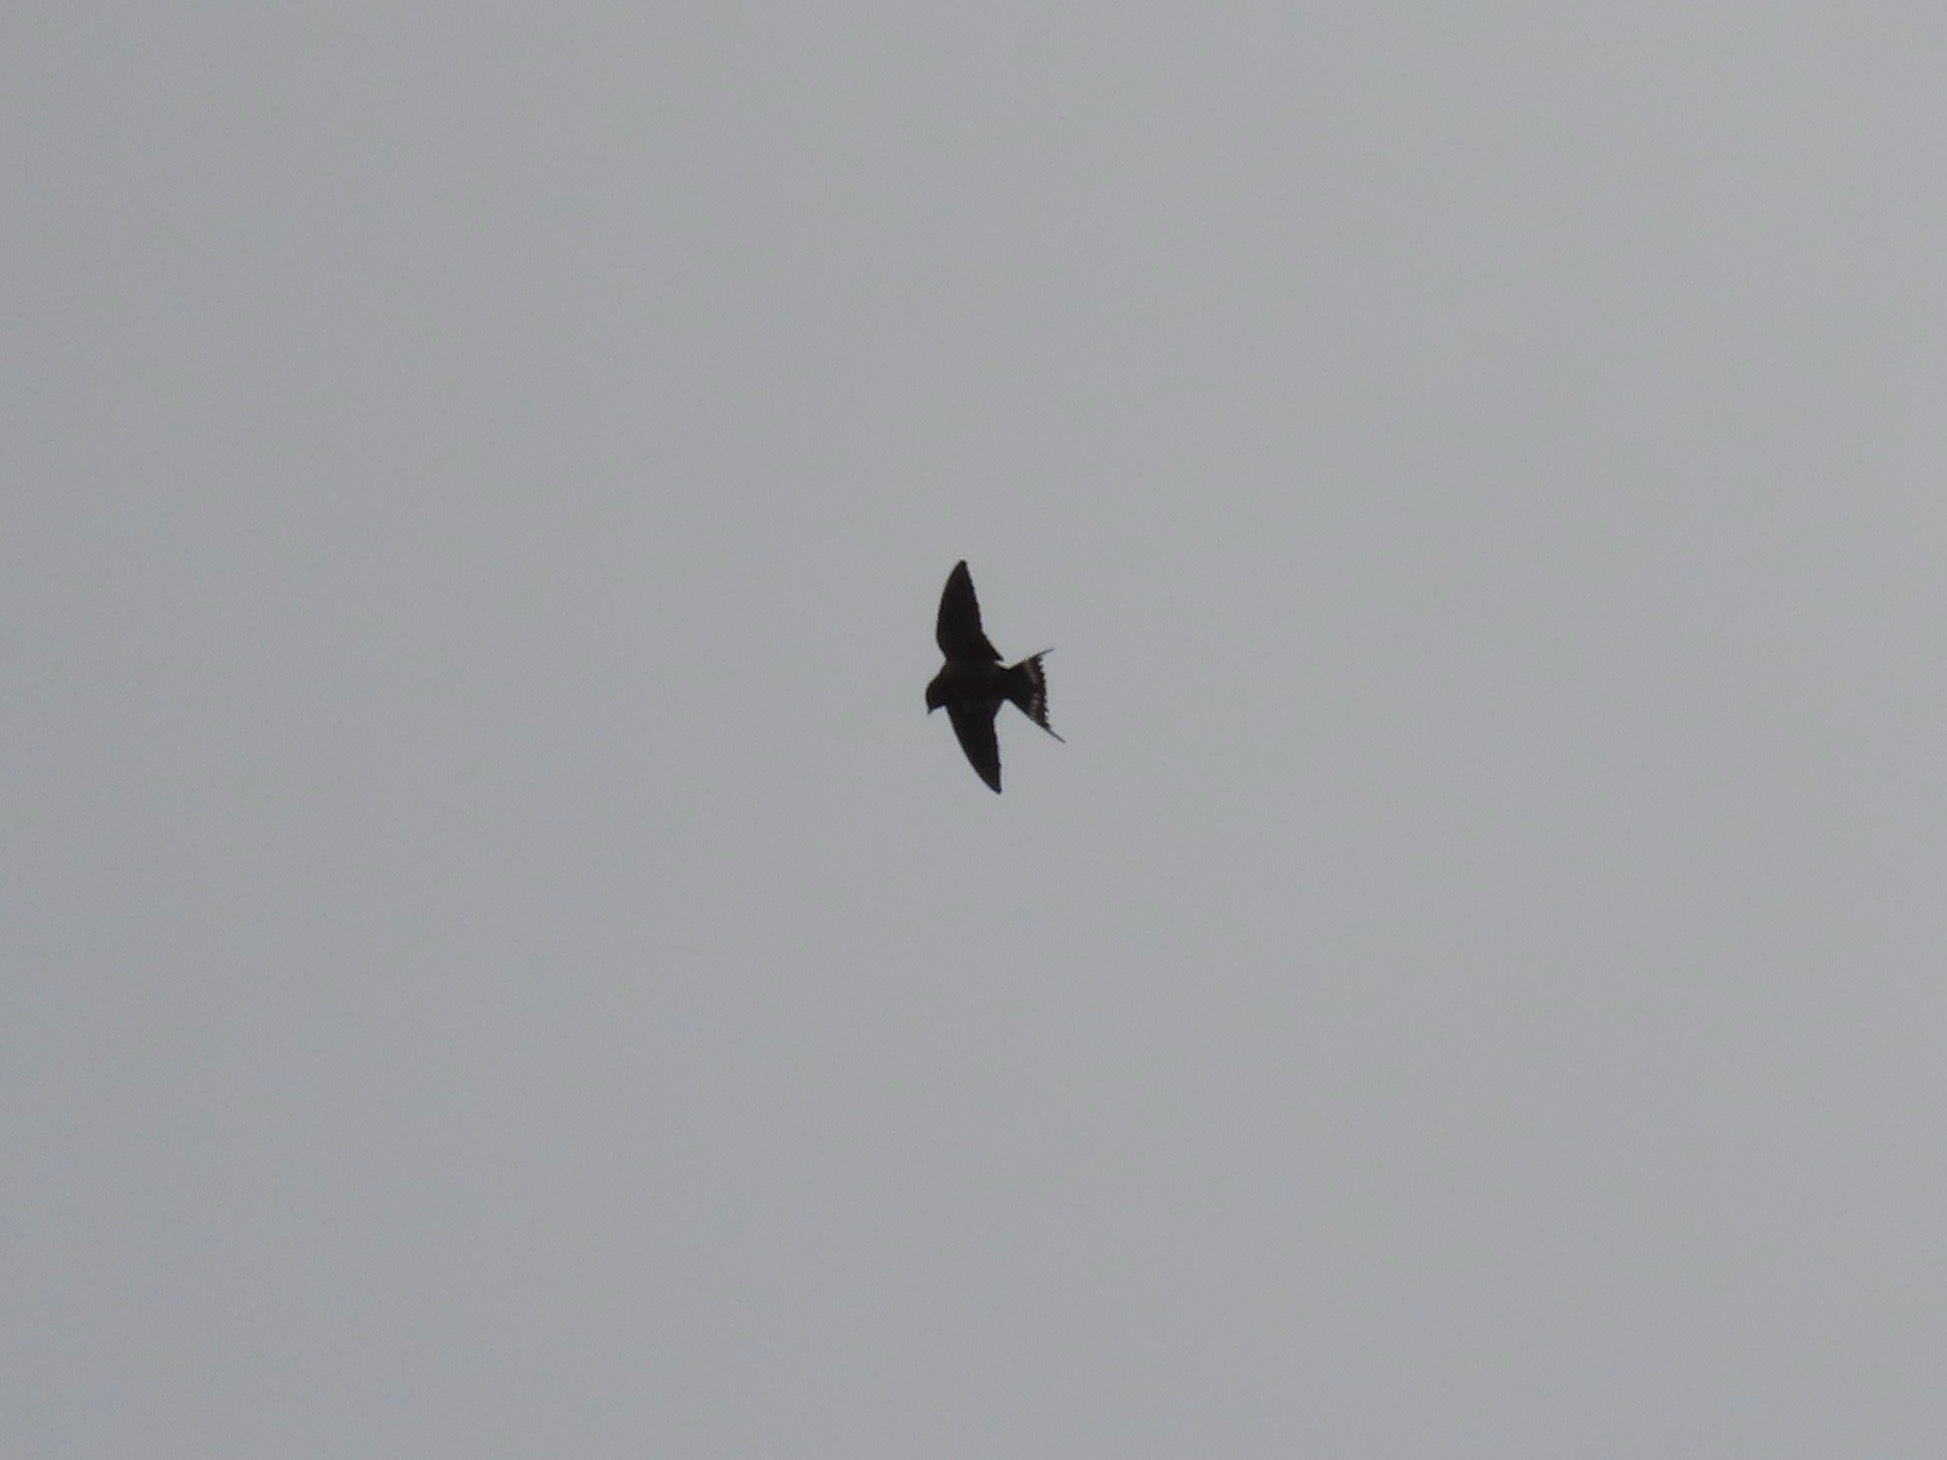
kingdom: Animalia
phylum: Chordata
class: Aves
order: Passeriformes
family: Hirundinidae
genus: Hirundo
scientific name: Hirundo rustica
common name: Barn swallow
